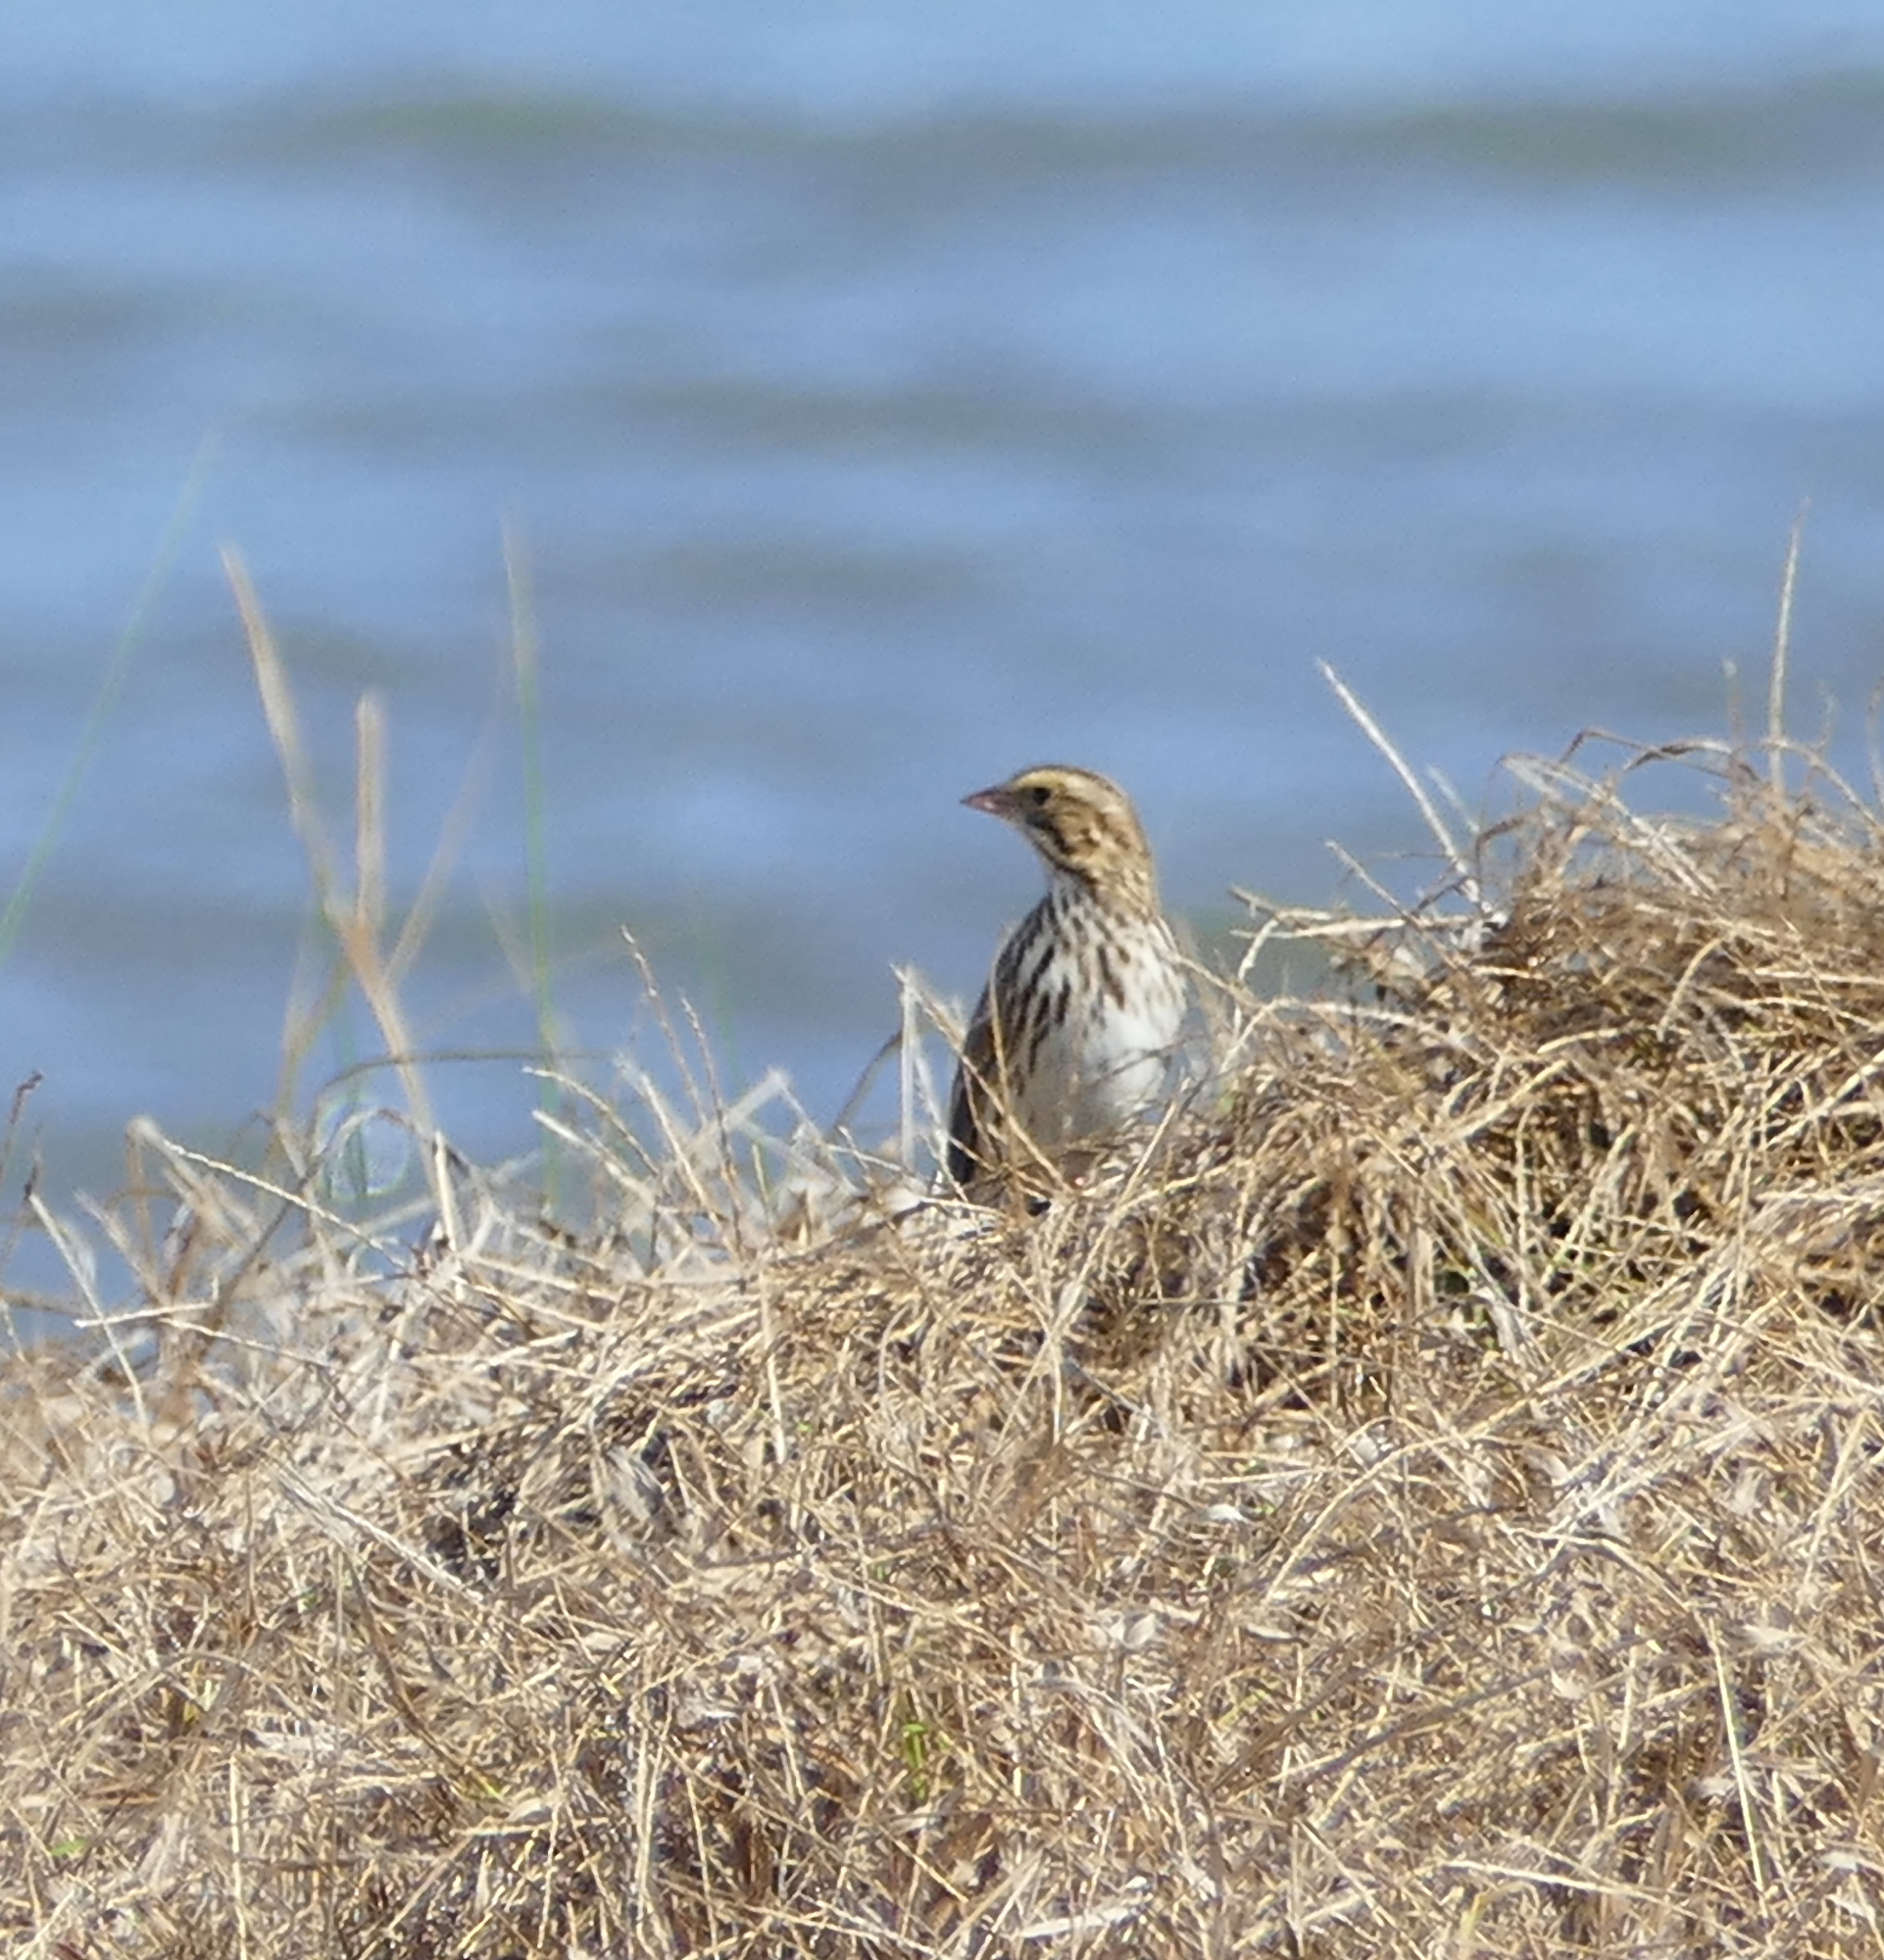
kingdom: Animalia
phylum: Chordata
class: Aves
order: Passeriformes
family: Passerellidae
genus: Passerculus
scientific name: Passerculus sandwichensis
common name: Savannah sparrow
